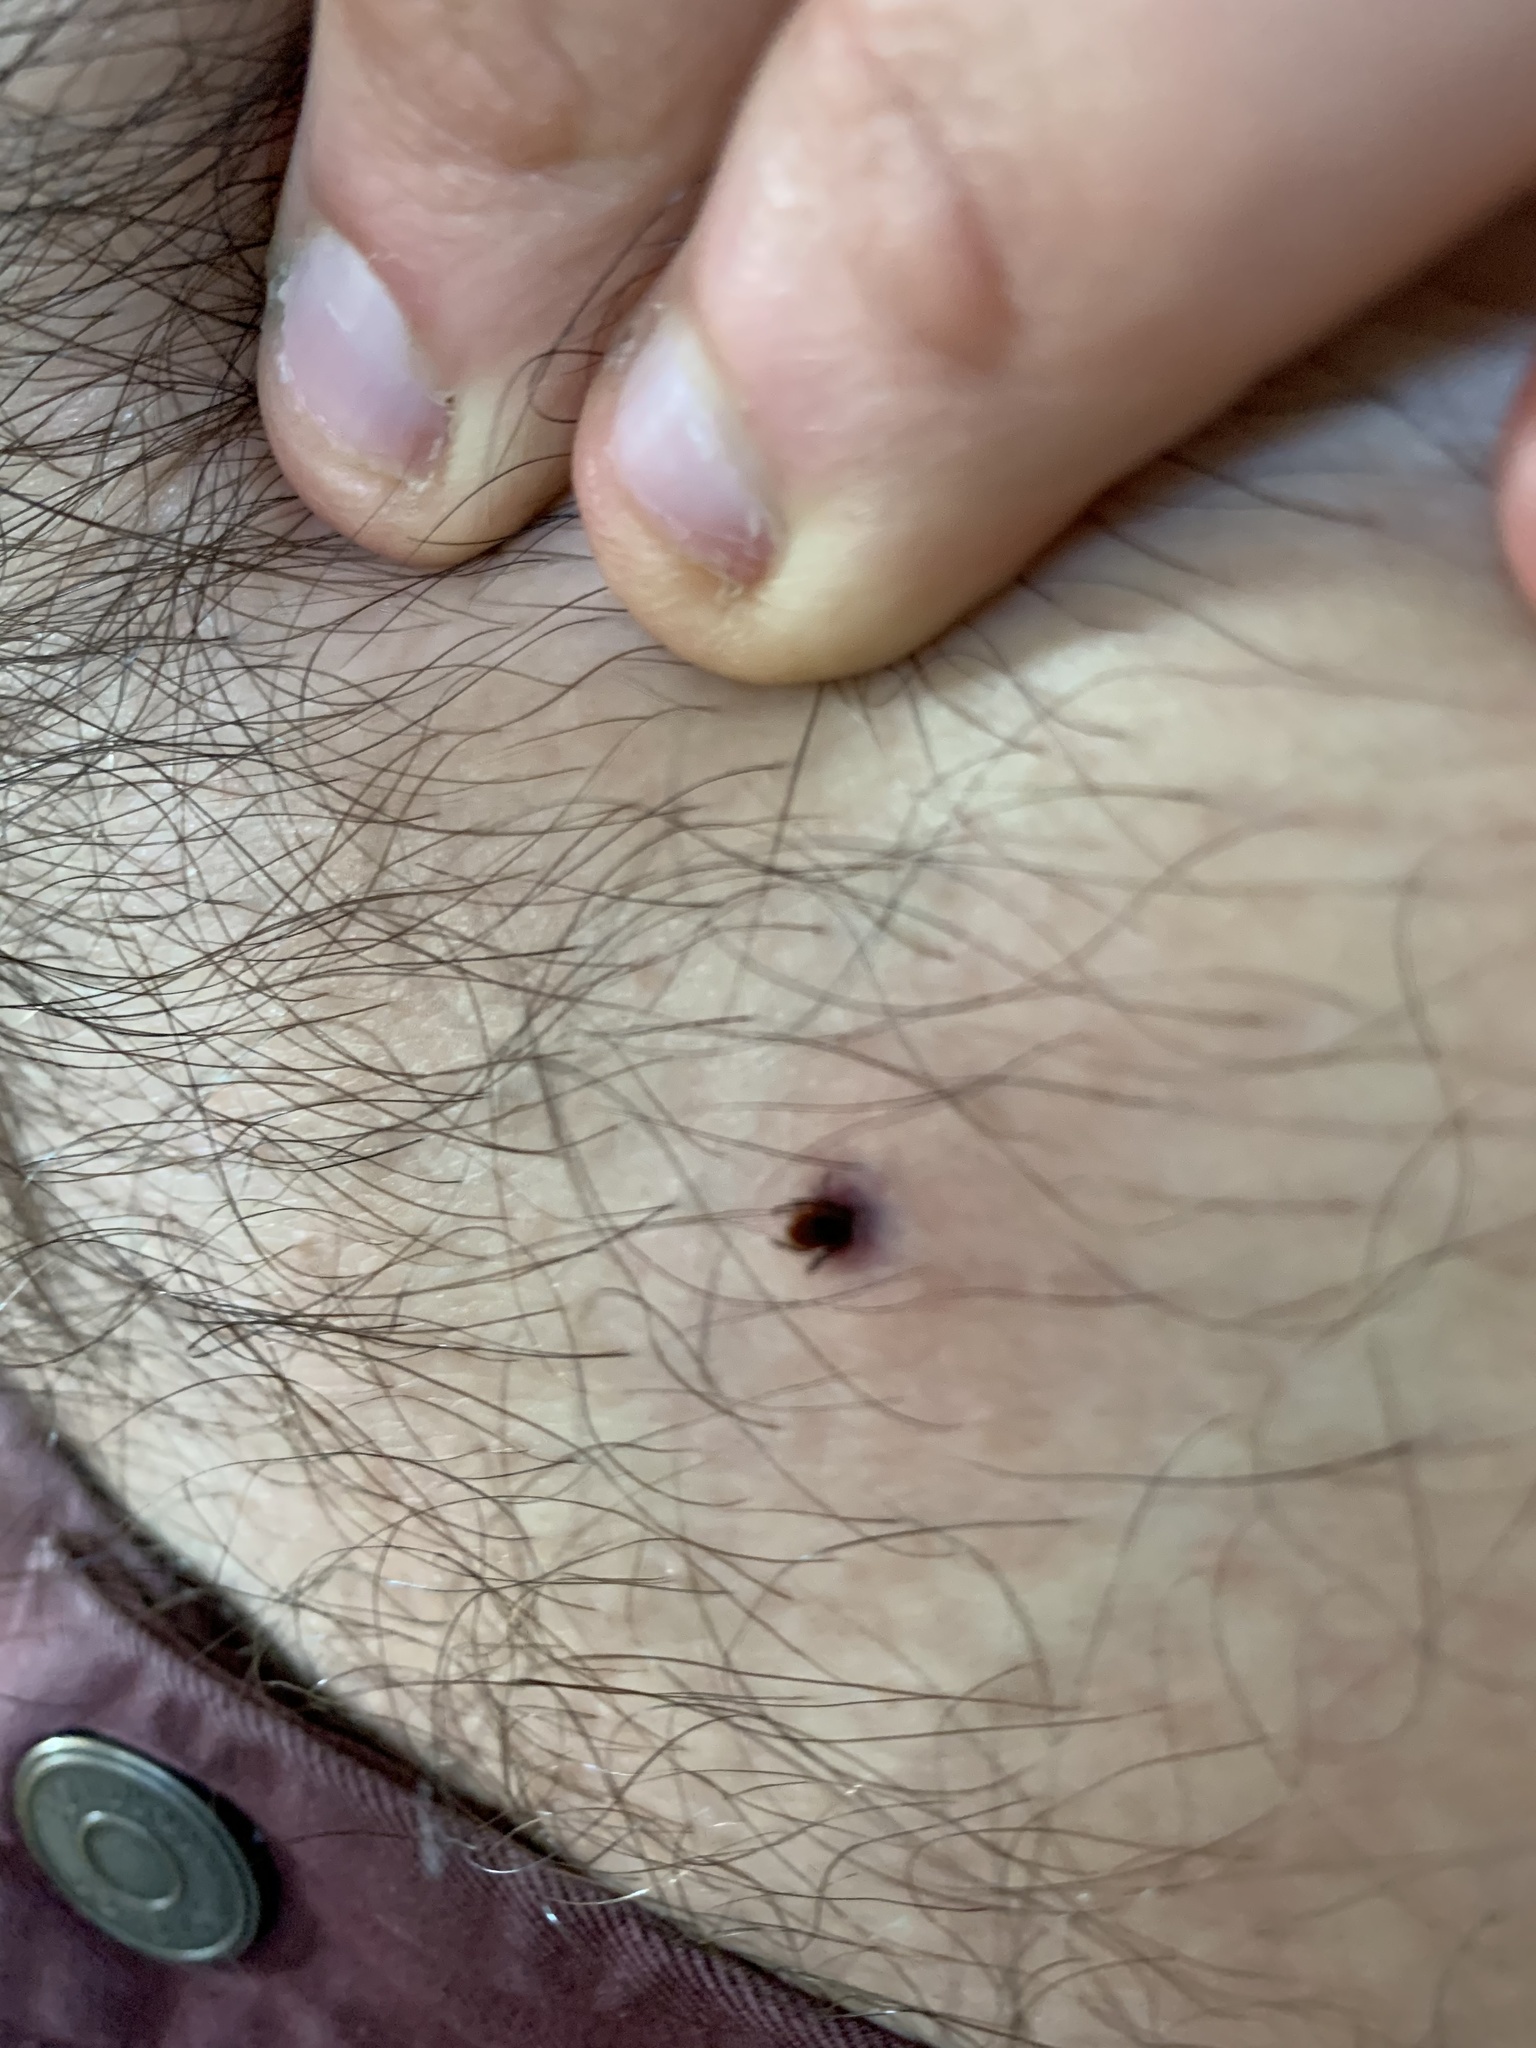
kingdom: Animalia
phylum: Arthropoda
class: Arachnida
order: Ixodida
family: Ixodidae
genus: Ixodes
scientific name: Ixodes scapularis
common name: Black legged tick
